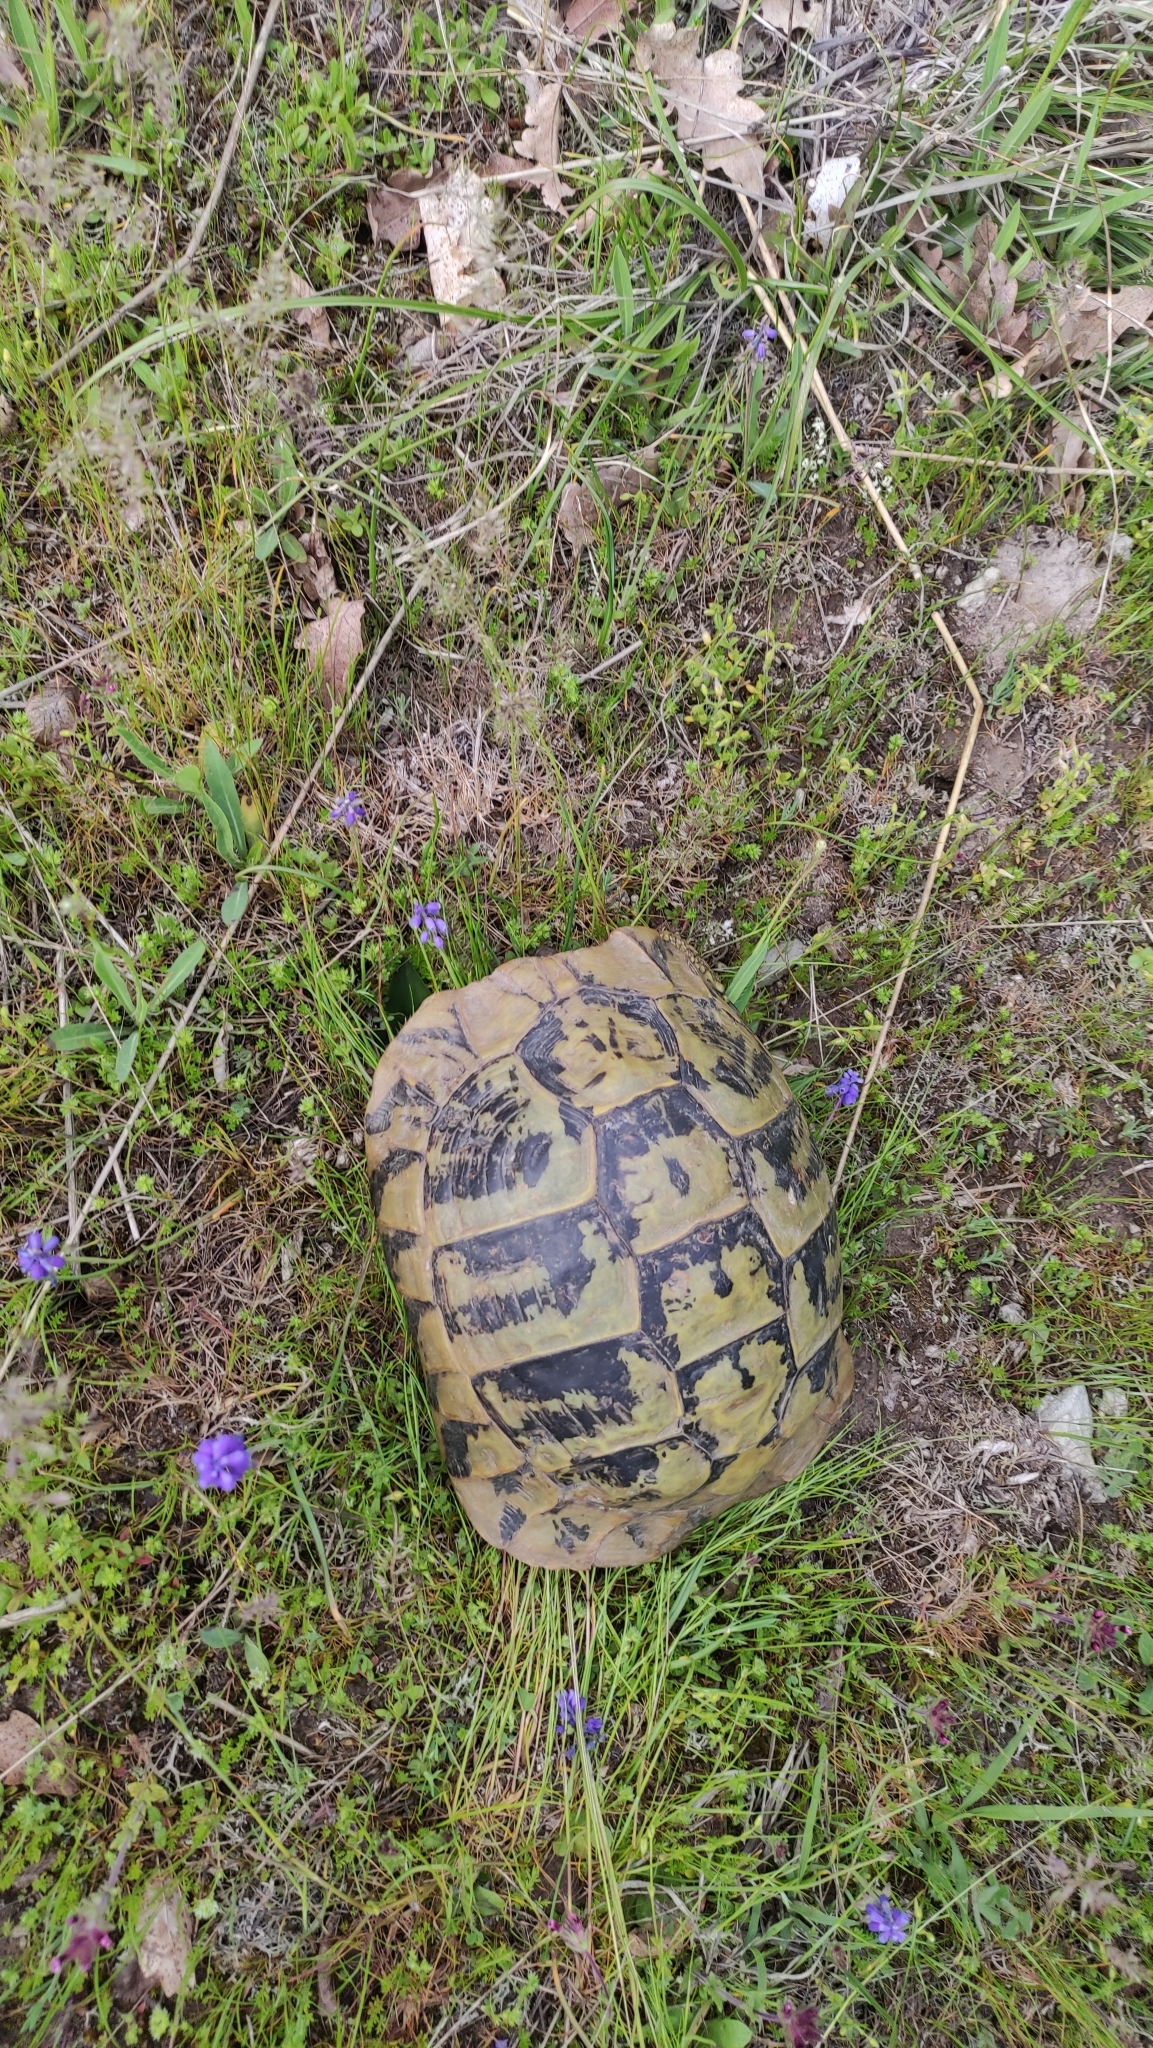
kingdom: Animalia
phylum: Chordata
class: Testudines
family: Testudinidae
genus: Testudo
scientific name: Testudo hermanni
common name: Hermann's tortoise
